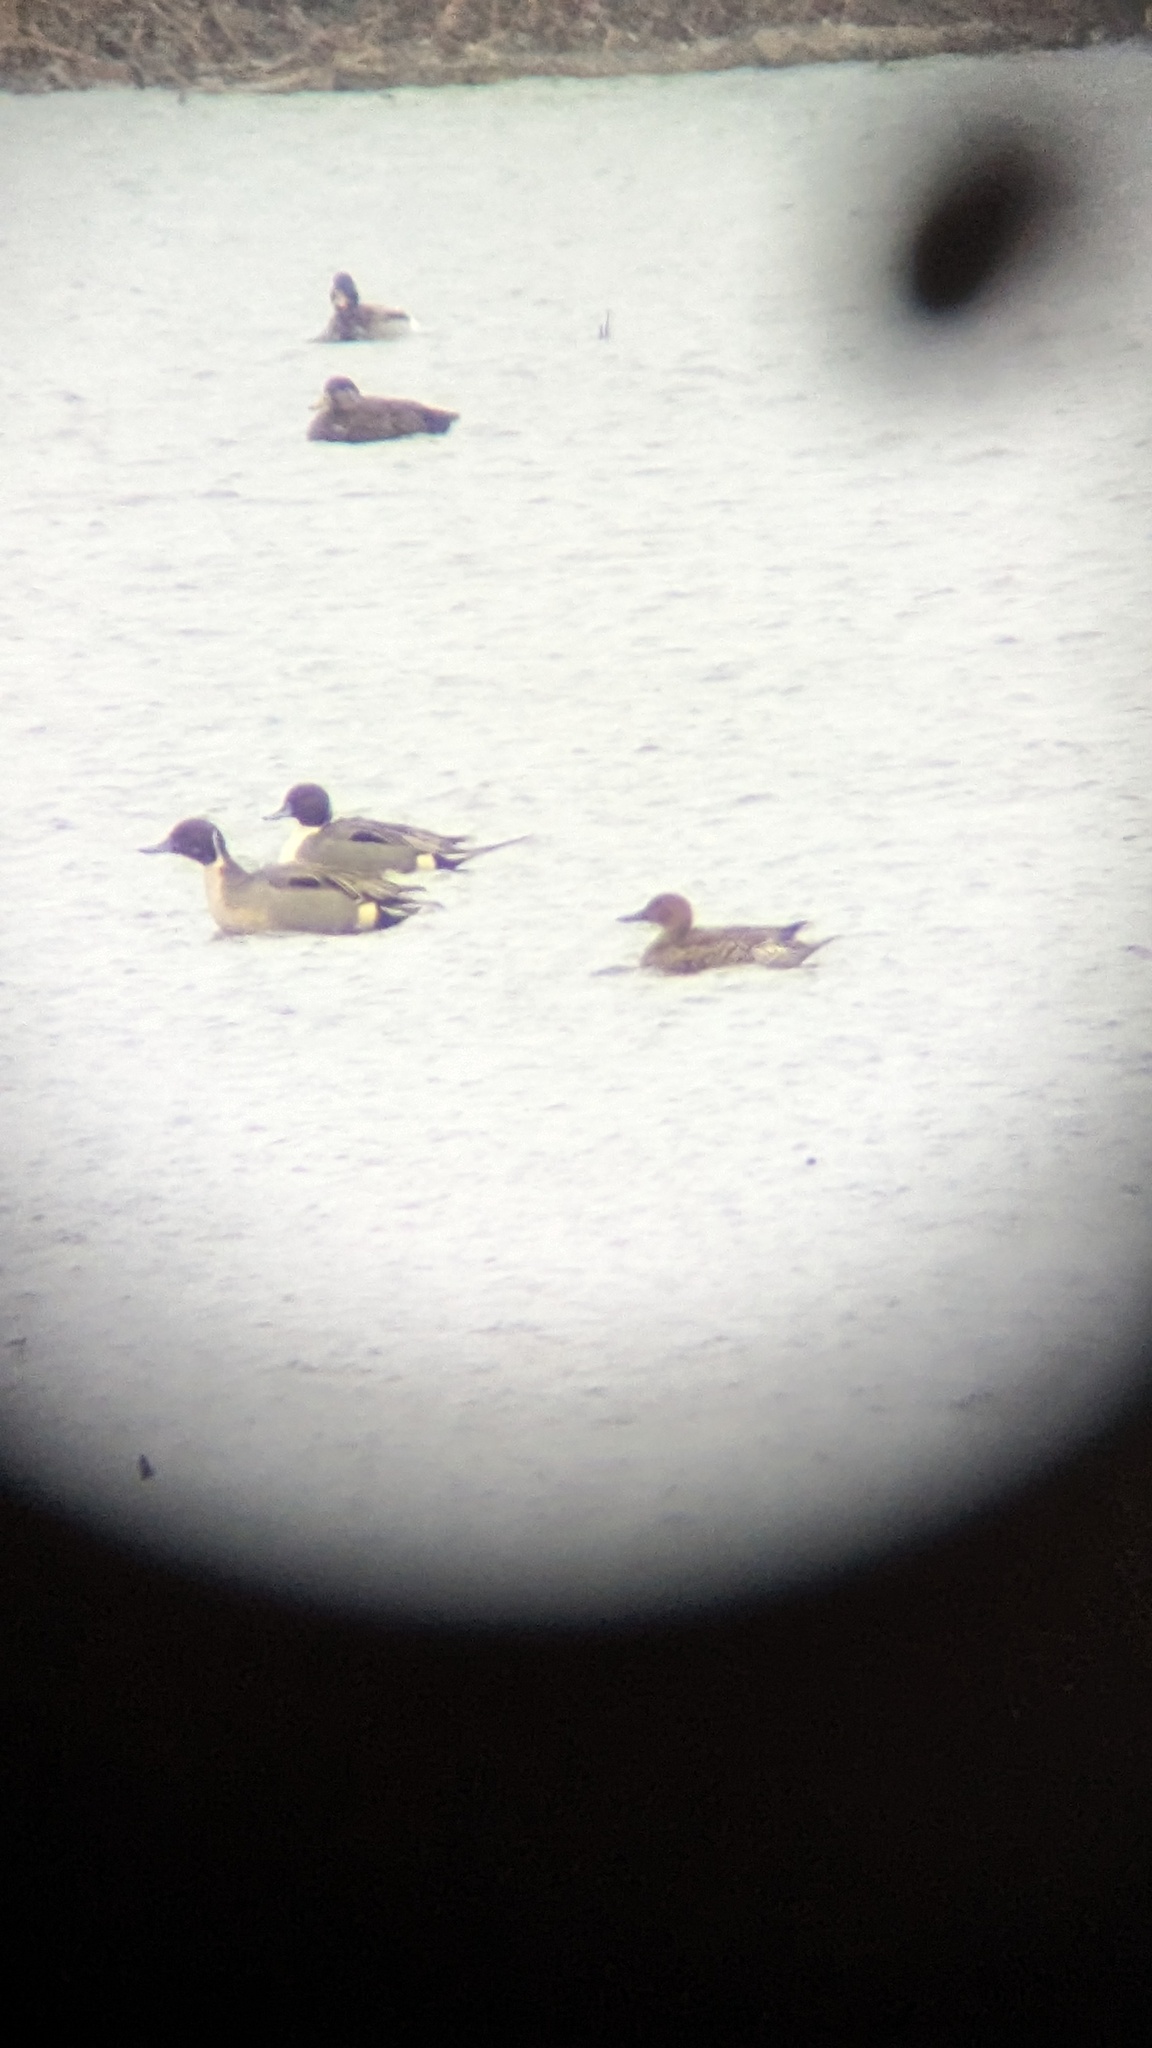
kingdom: Animalia
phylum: Chordata
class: Aves
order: Anseriformes
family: Anatidae
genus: Anas
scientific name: Anas acuta
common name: Northern pintail
